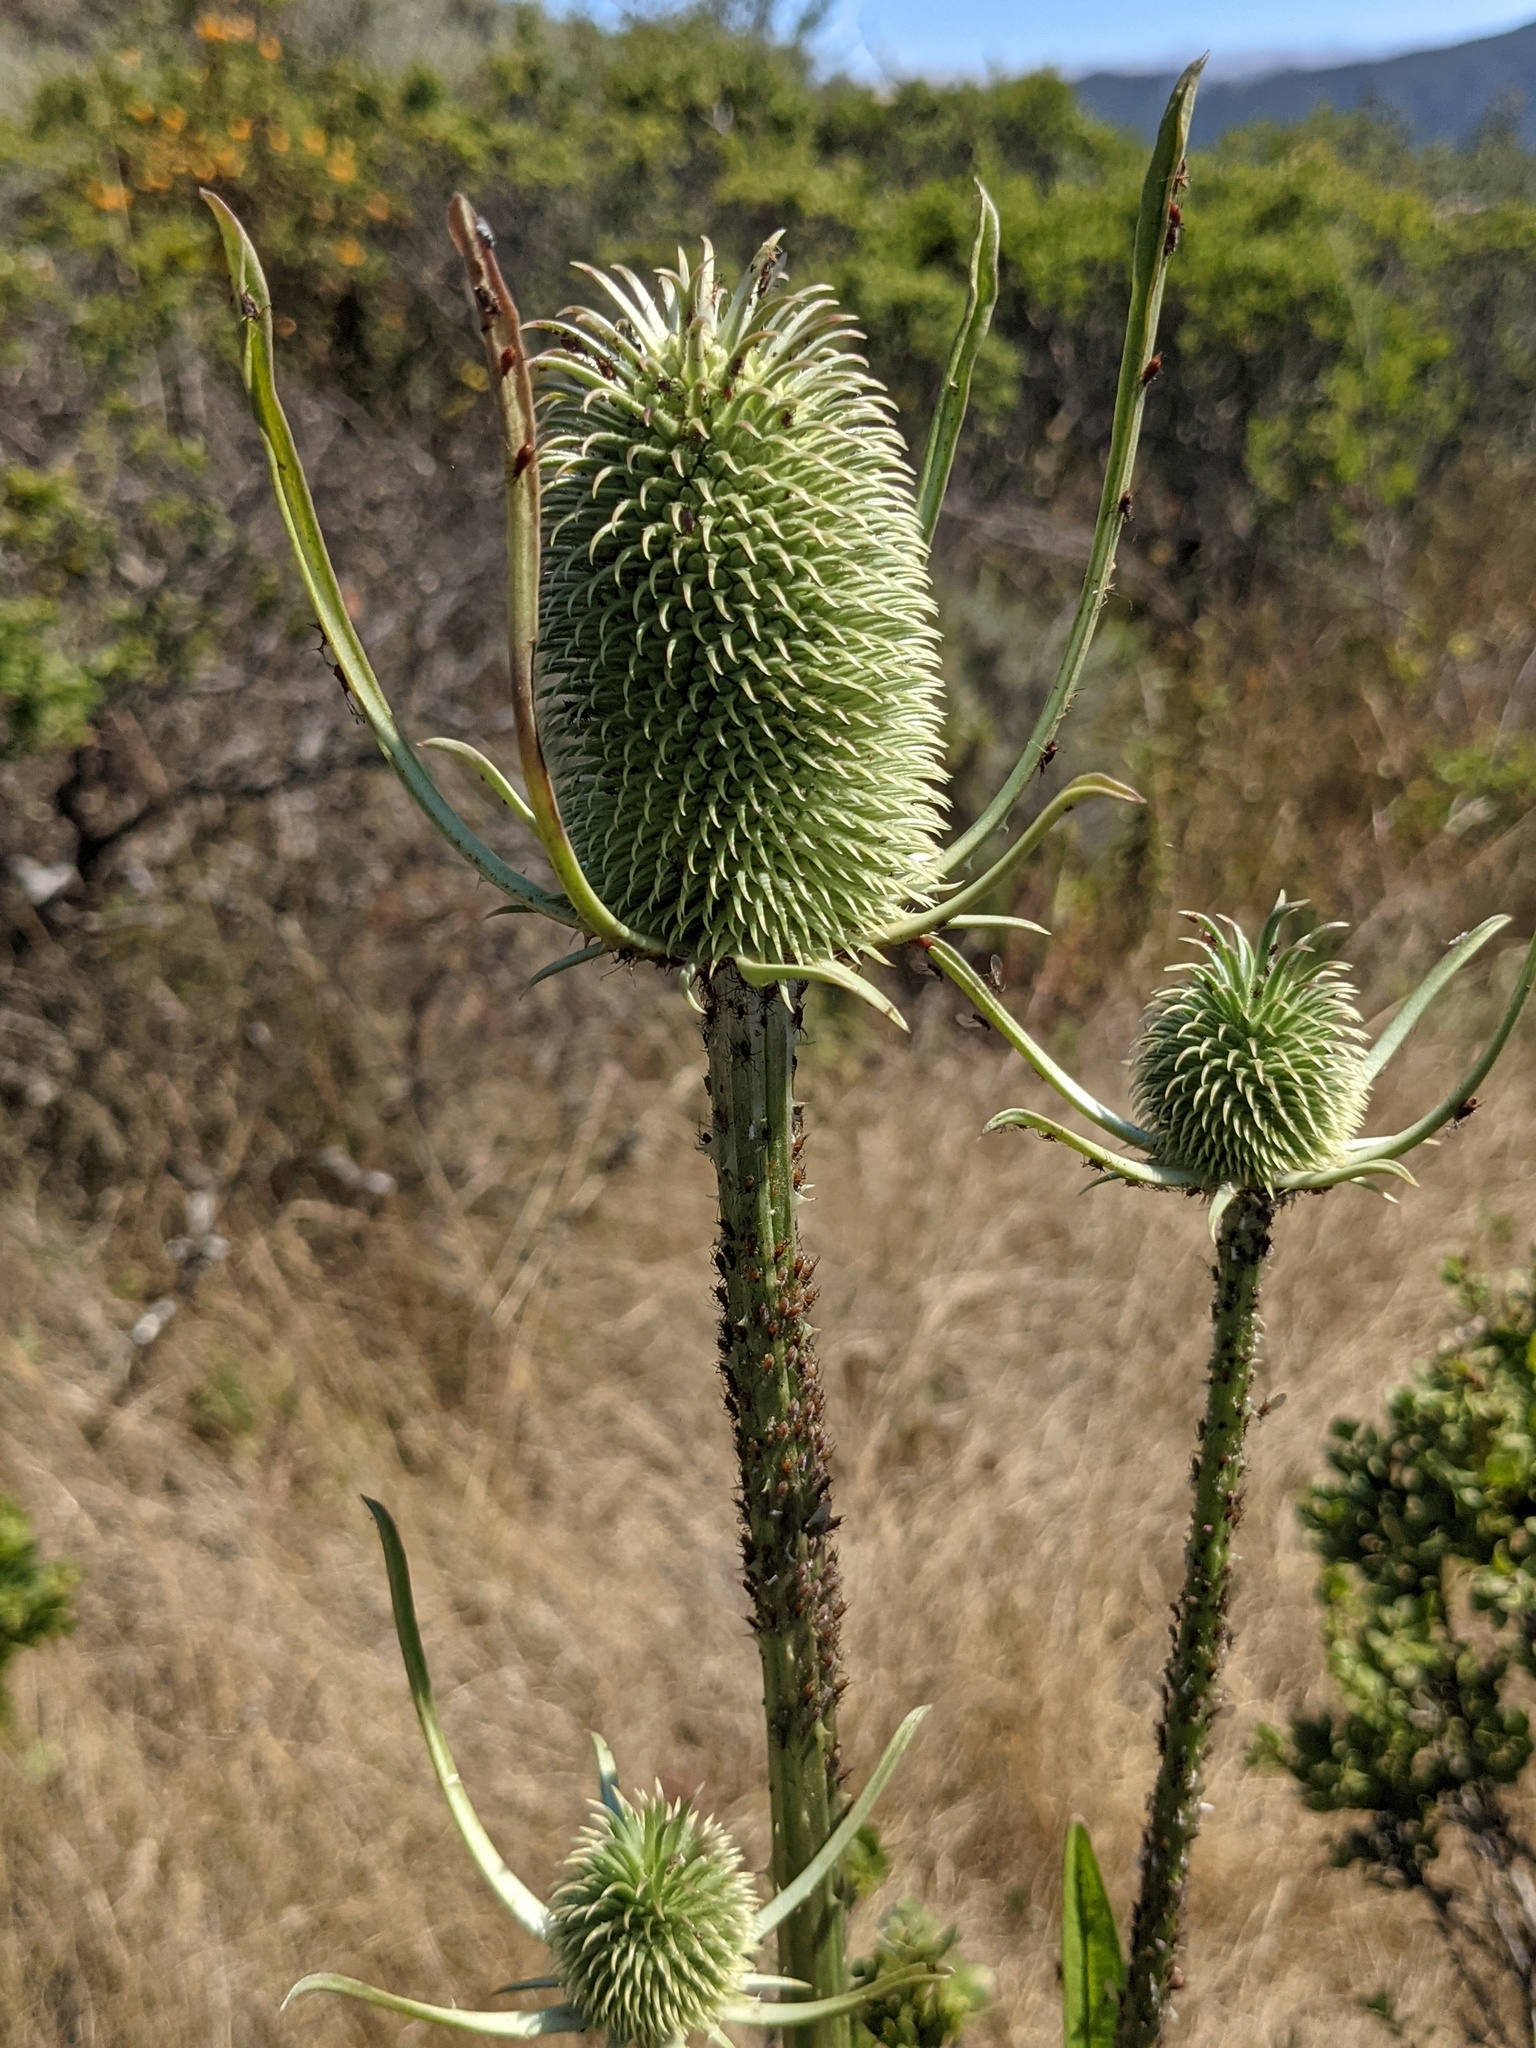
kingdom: Plantae
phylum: Tracheophyta
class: Magnoliopsida
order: Dipsacales
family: Caprifoliaceae
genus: Dipsacus
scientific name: Dipsacus sativus
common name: Fuller's teasel
